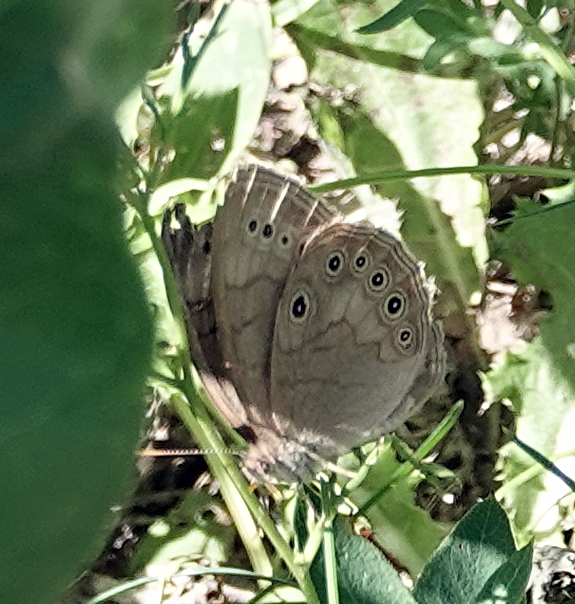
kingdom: Animalia
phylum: Arthropoda
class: Insecta
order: Lepidoptera
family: Nymphalidae
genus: Lethe
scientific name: Lethe eurydice
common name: Eyed brown
